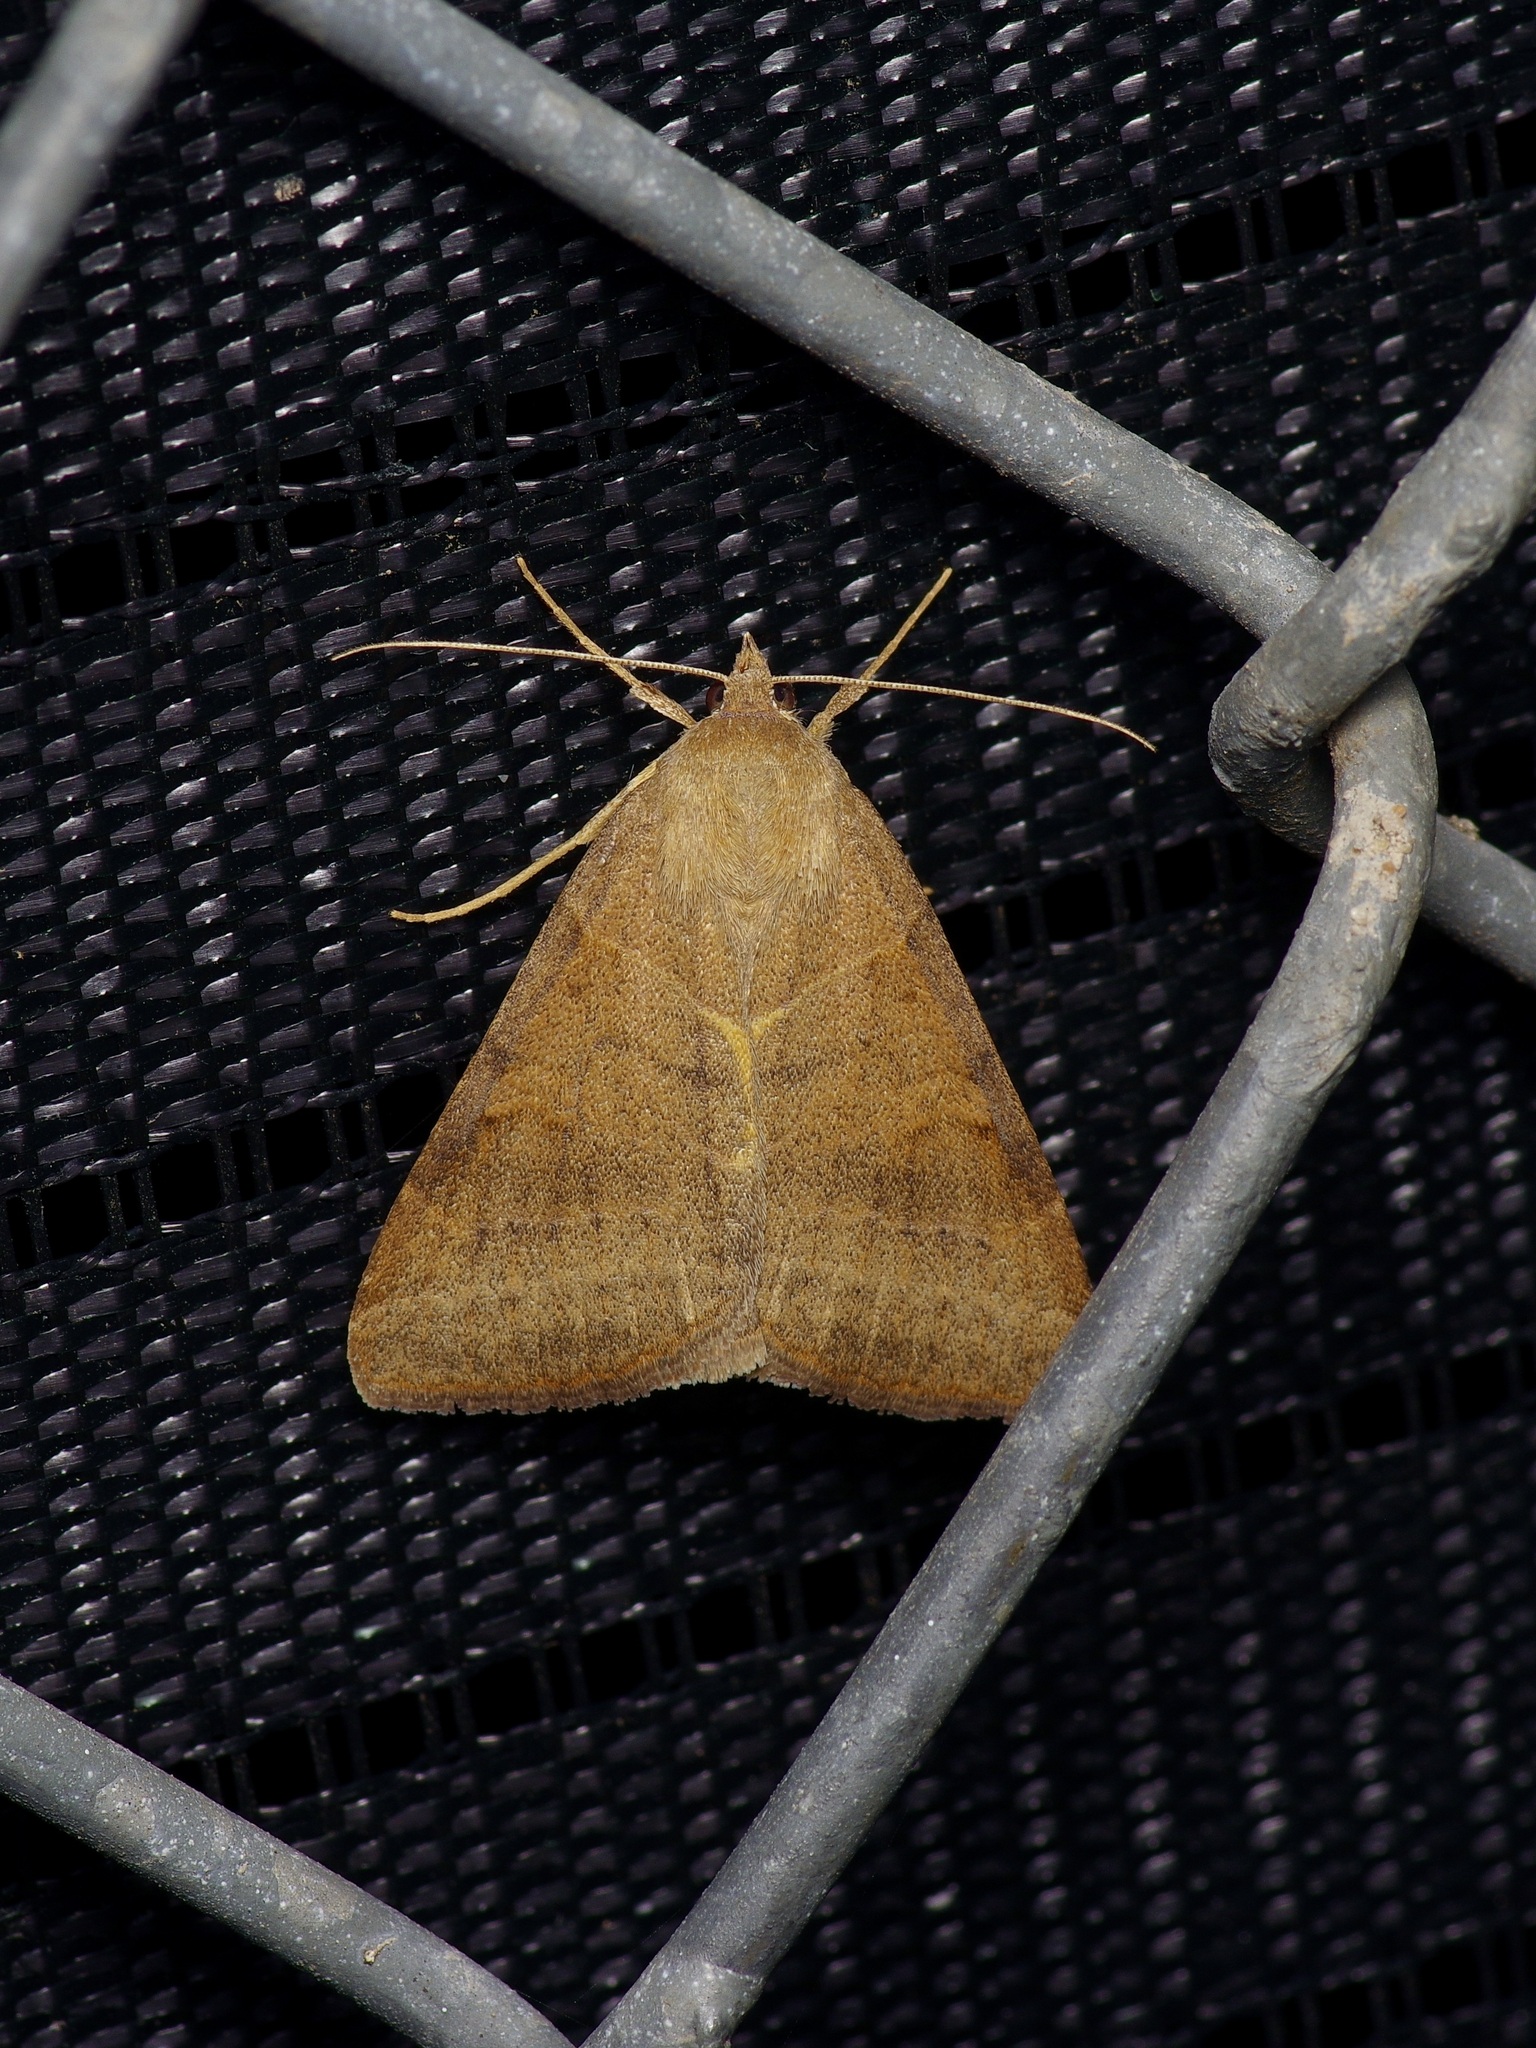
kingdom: Animalia
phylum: Arthropoda
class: Insecta
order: Lepidoptera
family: Erebidae
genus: Caenurgia
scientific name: Caenurgia chloropha
